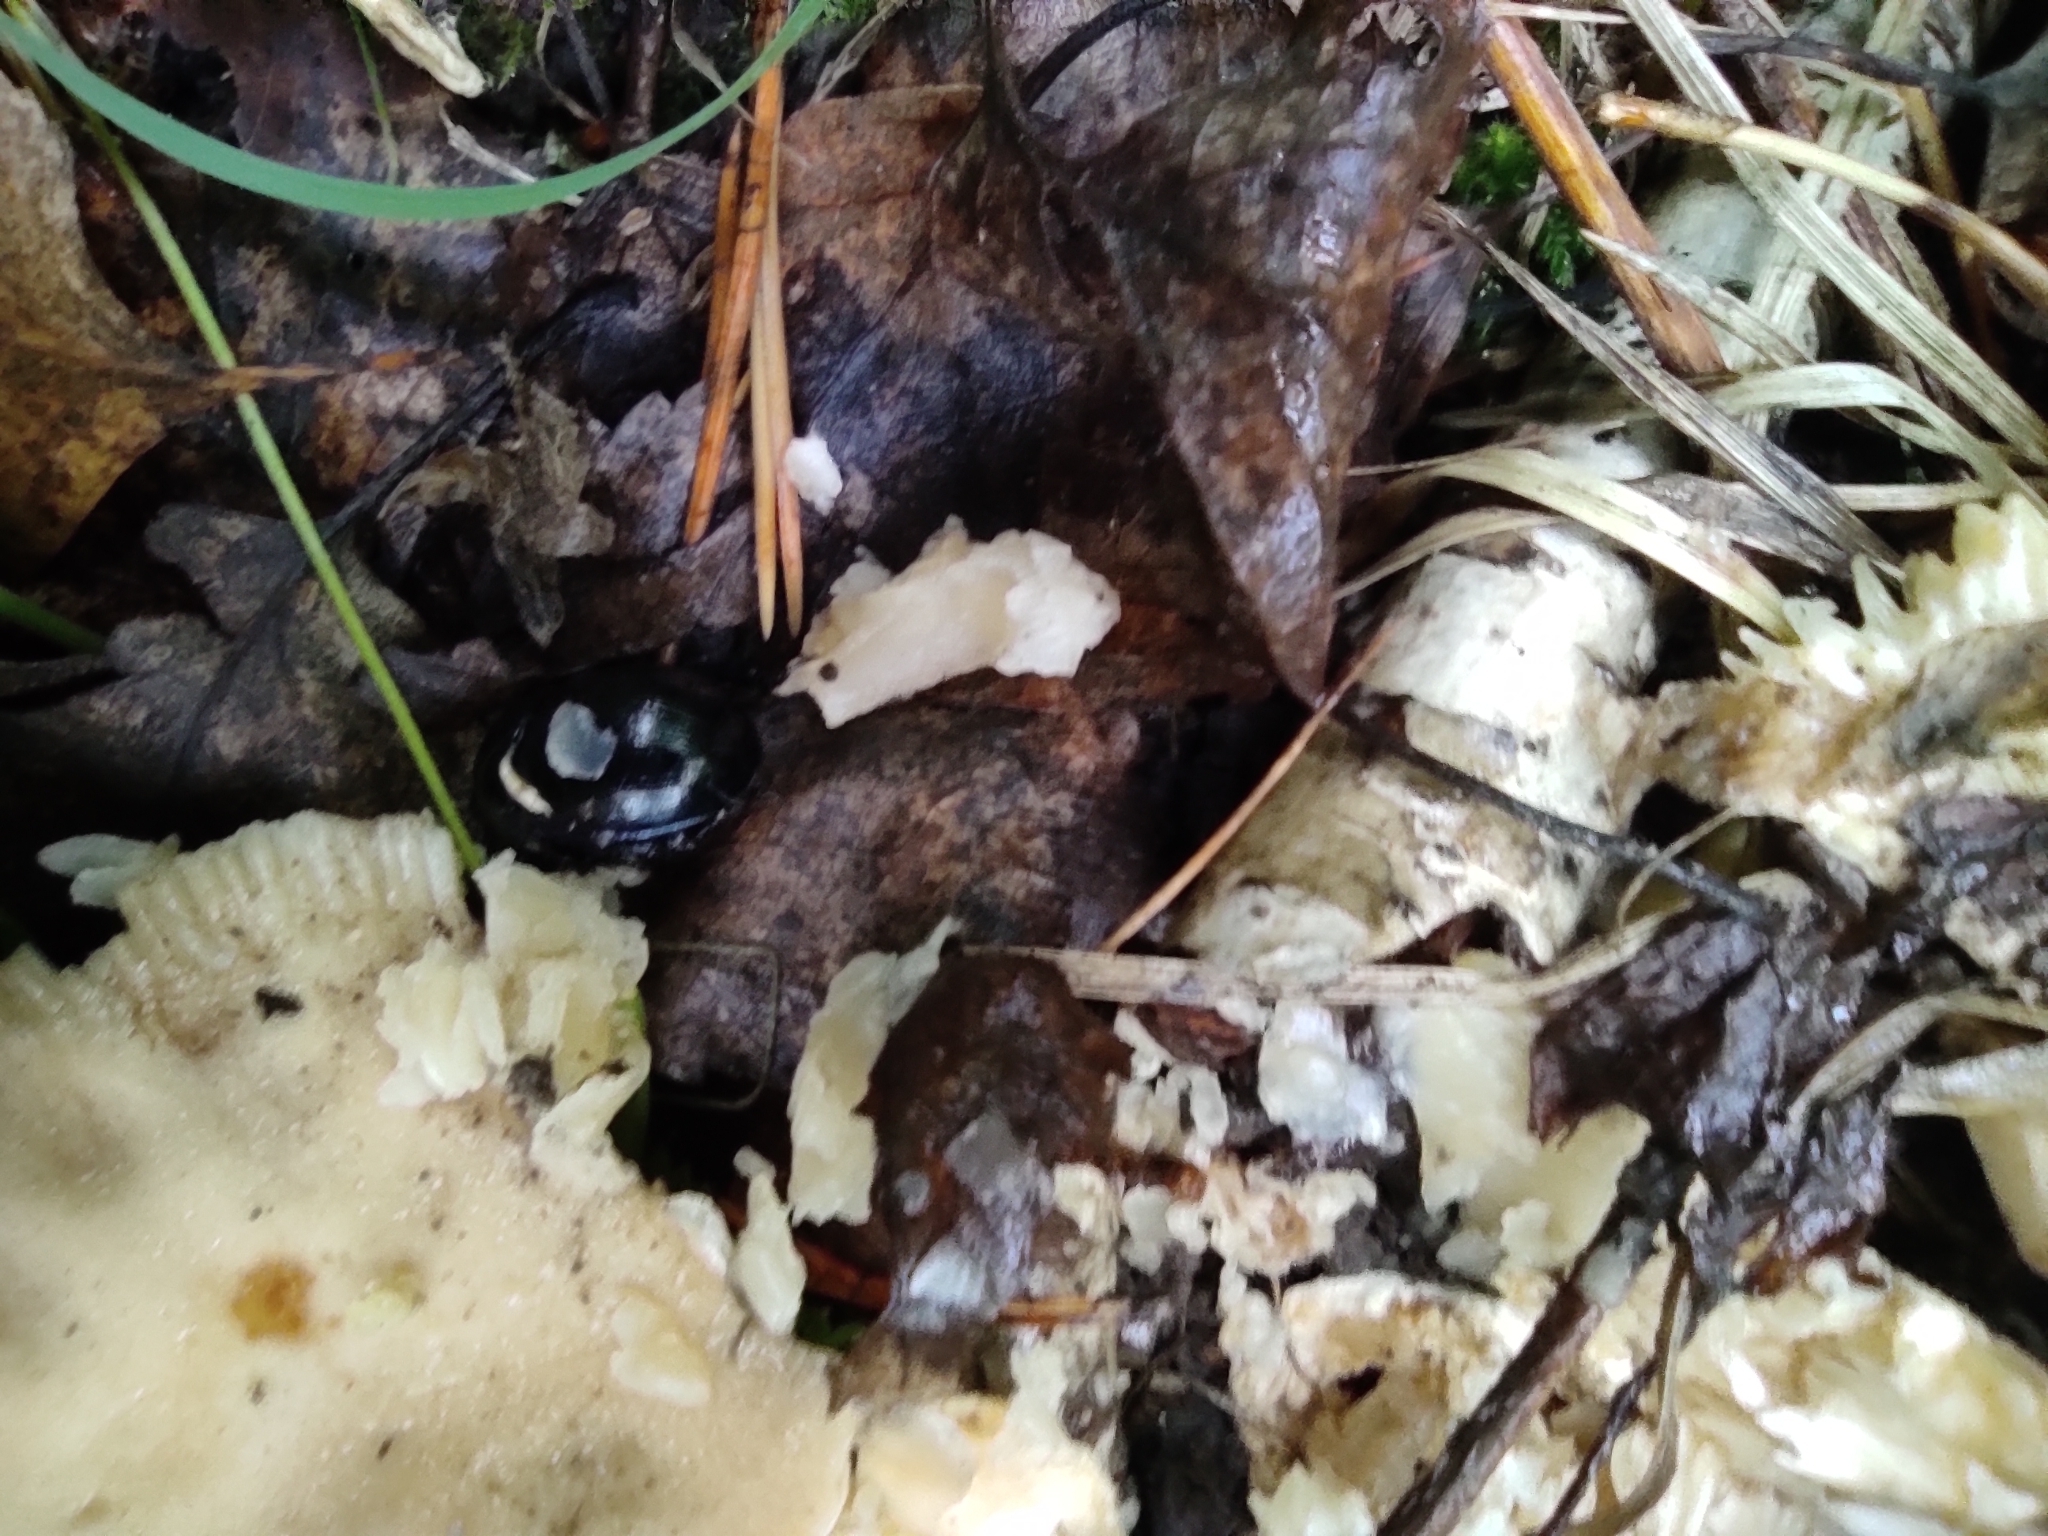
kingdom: Animalia
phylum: Arthropoda
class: Insecta
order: Coleoptera
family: Geotrupidae
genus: Anoplotrupes
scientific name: Anoplotrupes stercorosus
